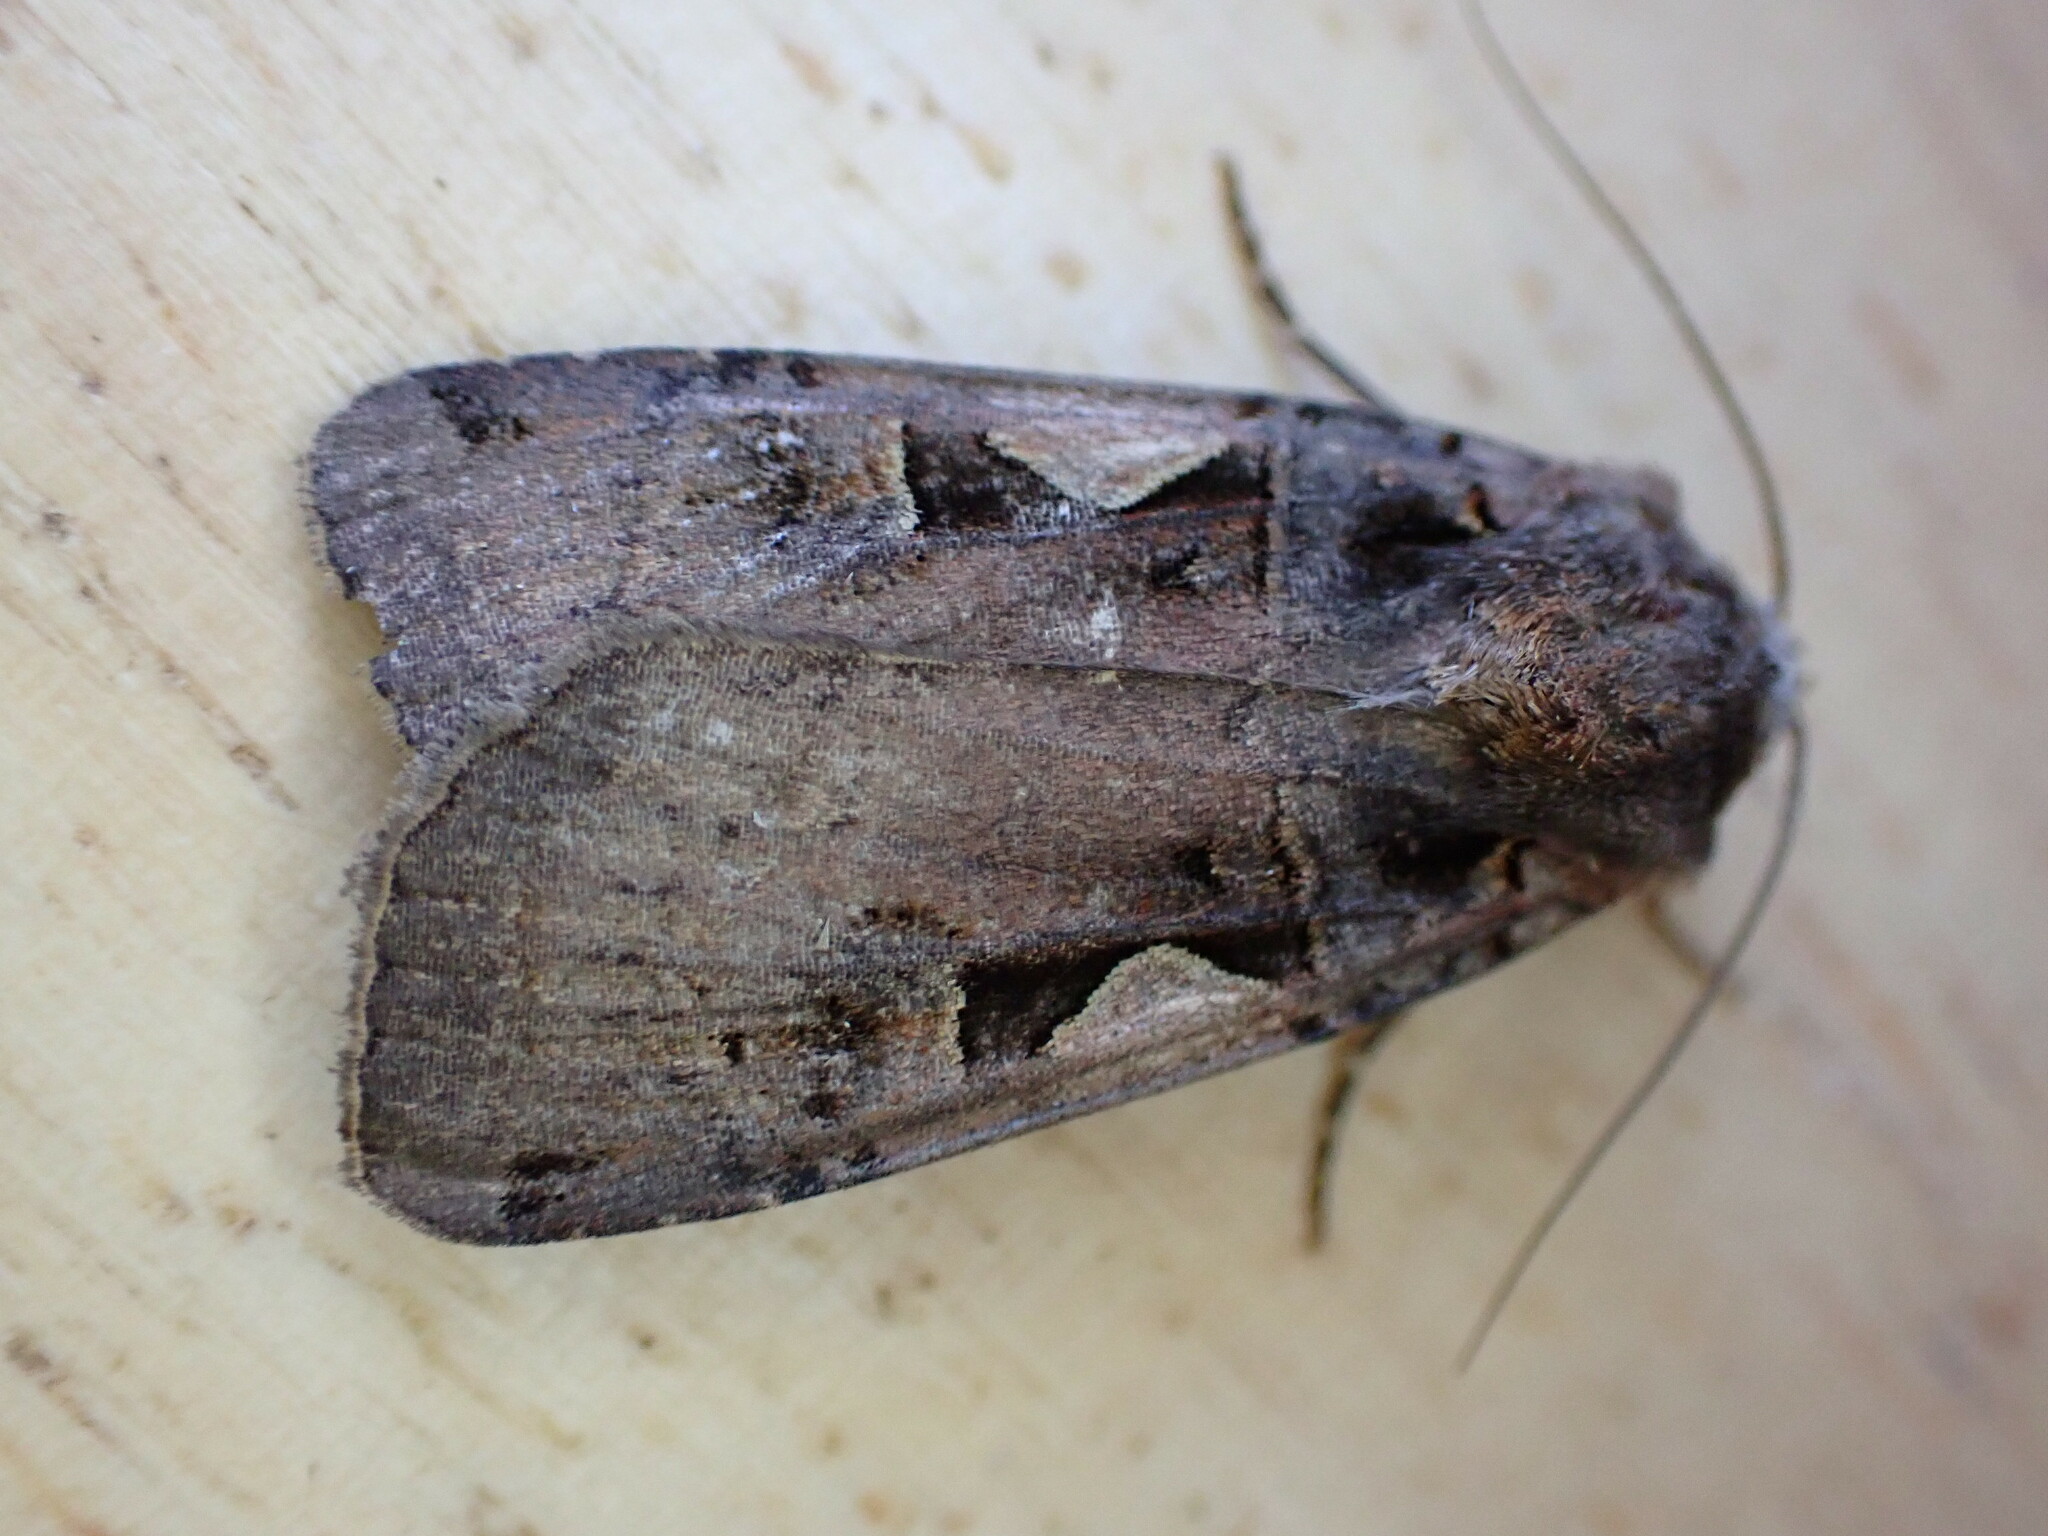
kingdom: Animalia
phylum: Arthropoda
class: Insecta
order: Lepidoptera
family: Noctuidae
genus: Xestia
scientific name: Xestia c-nigrum
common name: Setaceous hebrew character
